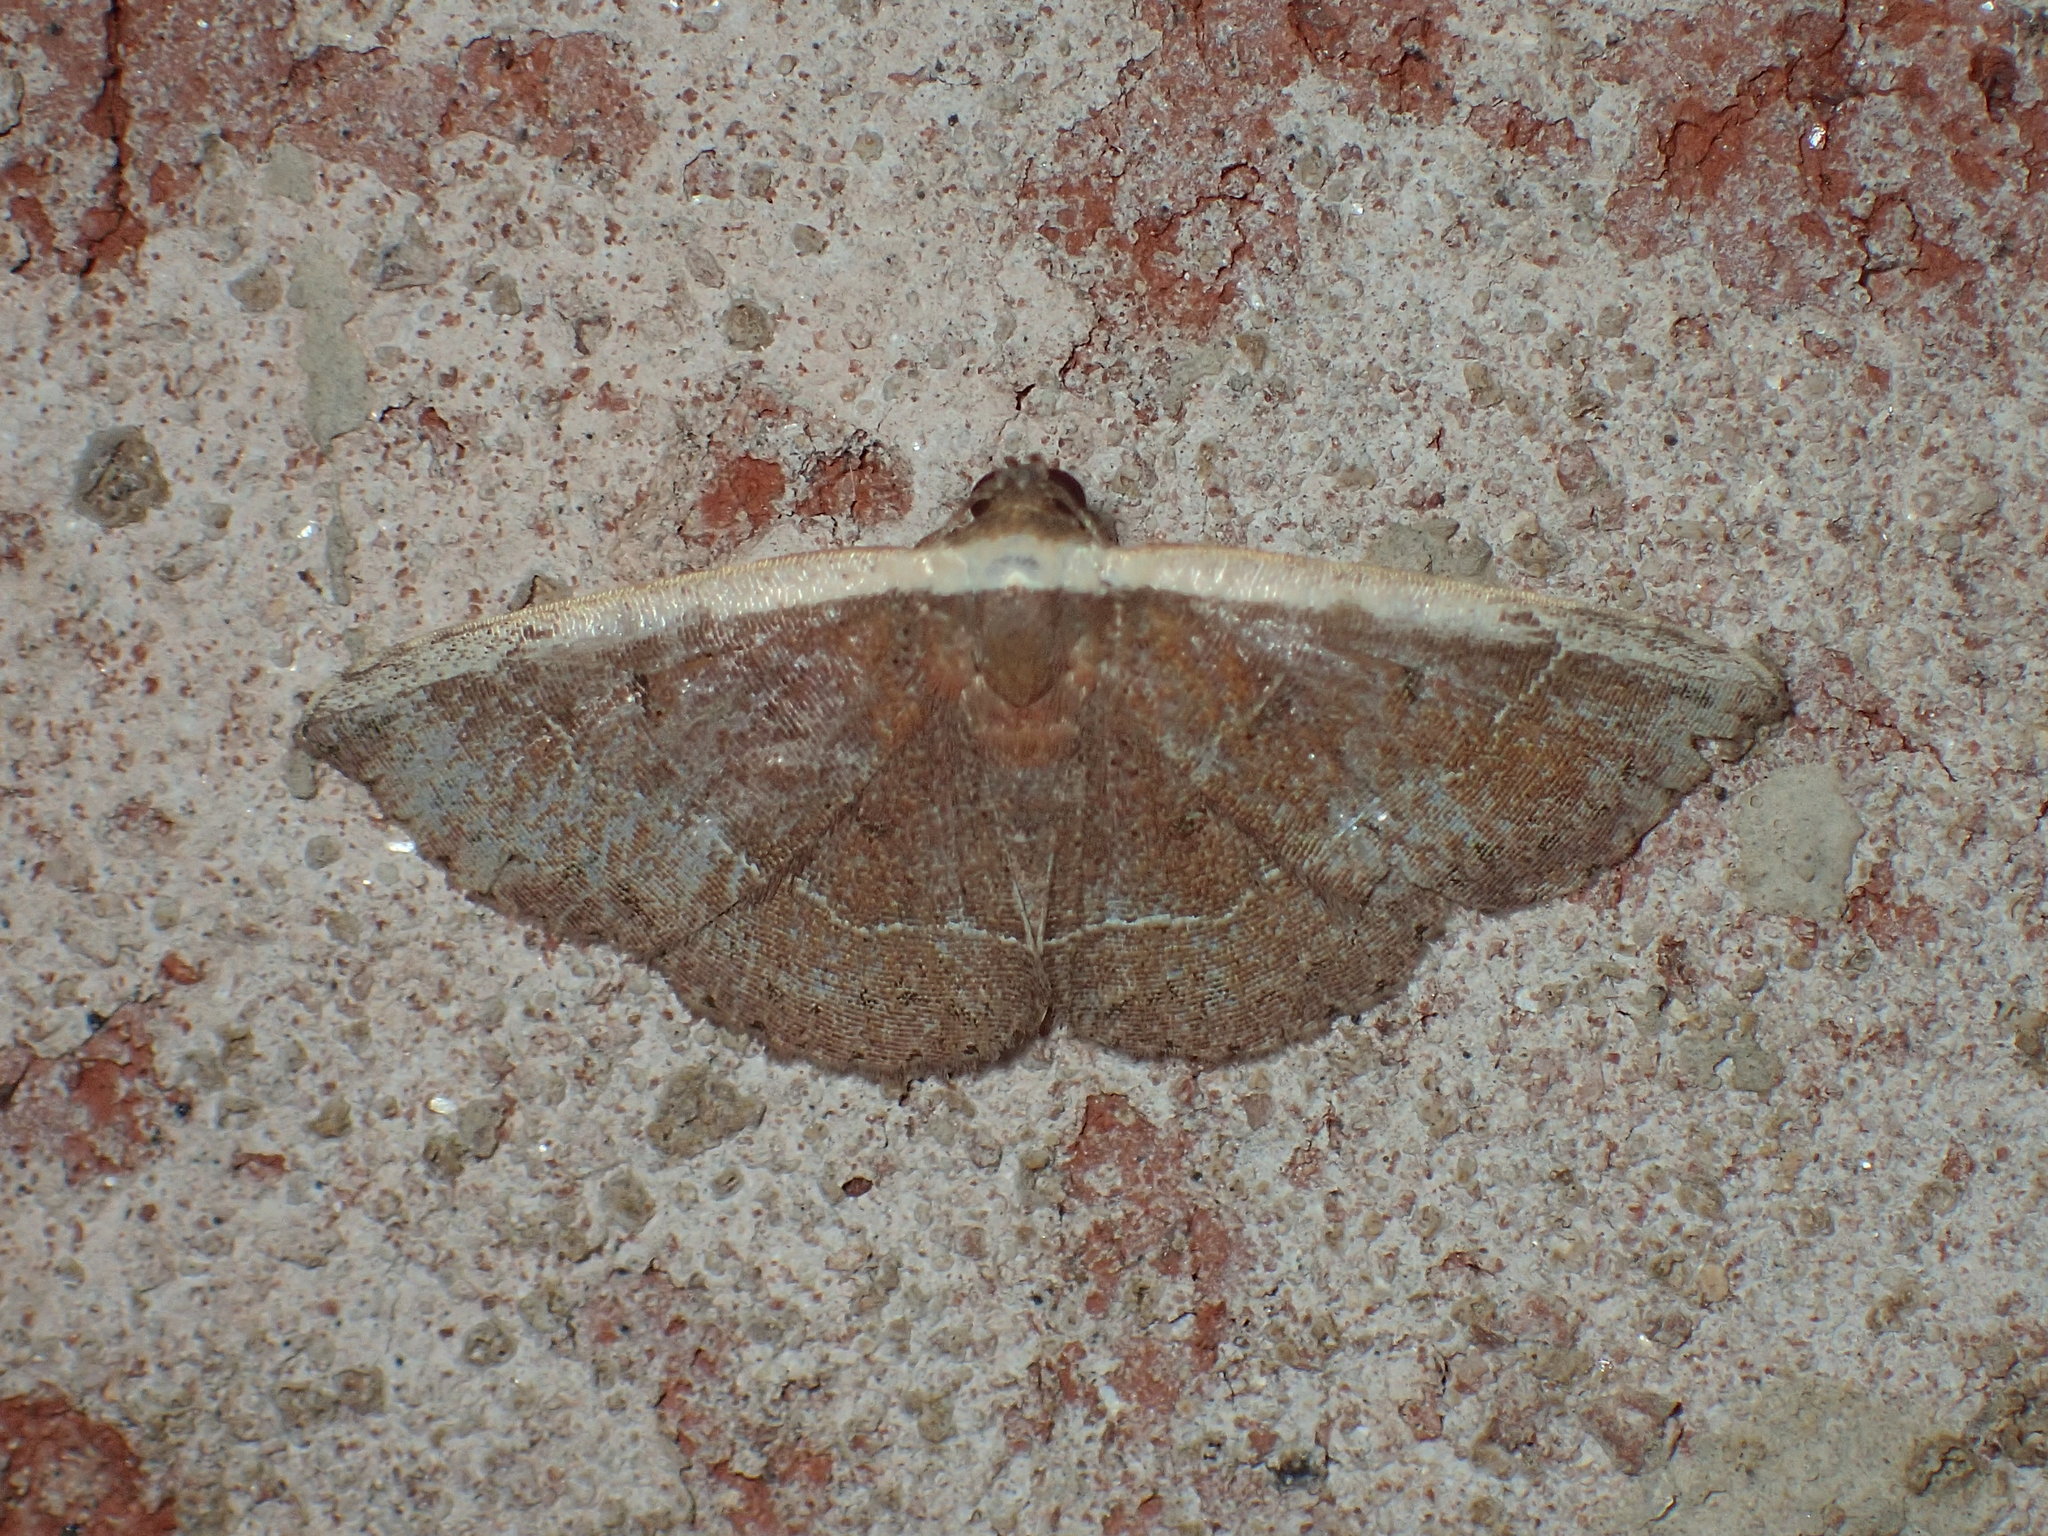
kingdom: Animalia
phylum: Arthropoda
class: Insecta
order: Lepidoptera
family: Noctuidae
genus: Ozarba
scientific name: Ozarba albocostaliata
